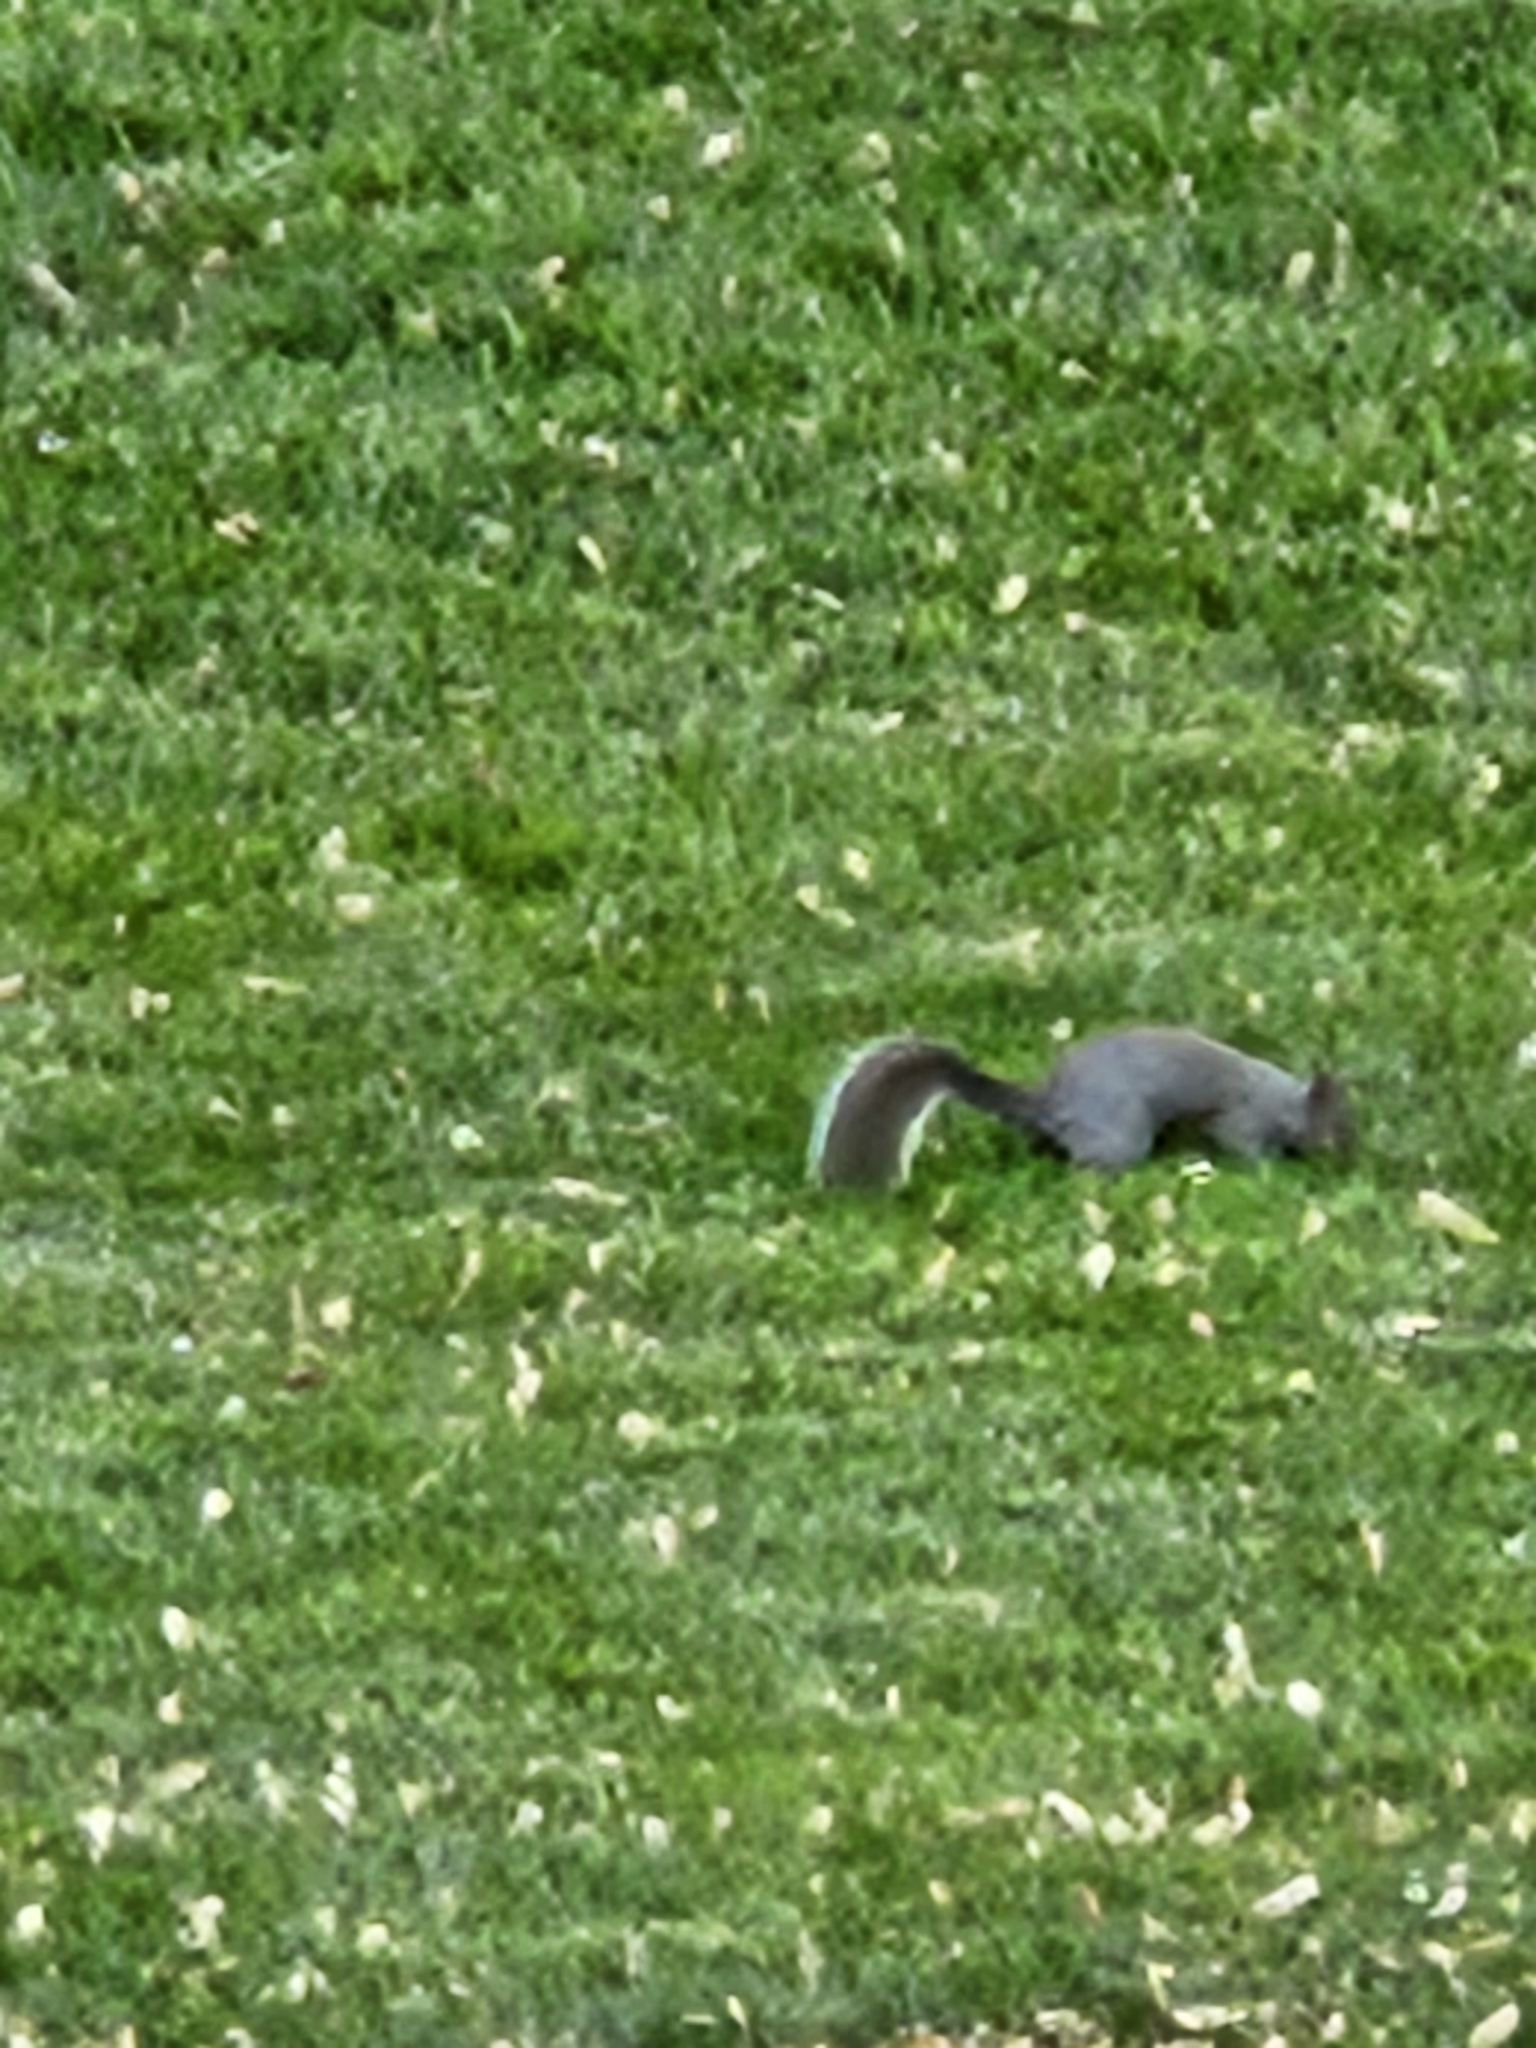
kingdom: Animalia
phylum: Chordata
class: Mammalia
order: Rodentia
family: Sciuridae
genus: Sciurus
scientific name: Sciurus carolinensis
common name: Eastern gray squirrel
